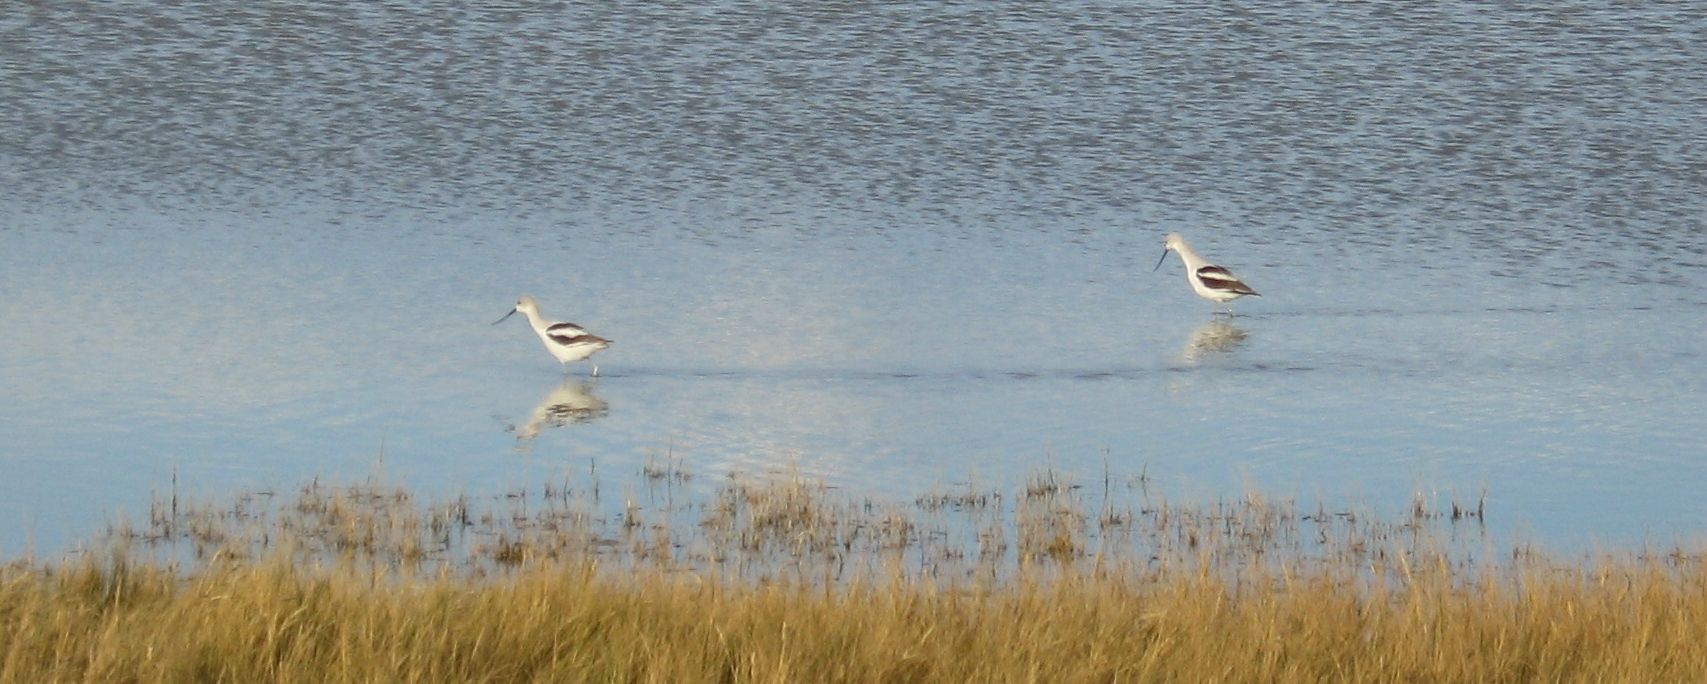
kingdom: Animalia
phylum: Chordata
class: Aves
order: Charadriiformes
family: Recurvirostridae
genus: Recurvirostra
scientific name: Recurvirostra americana
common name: American avocet
